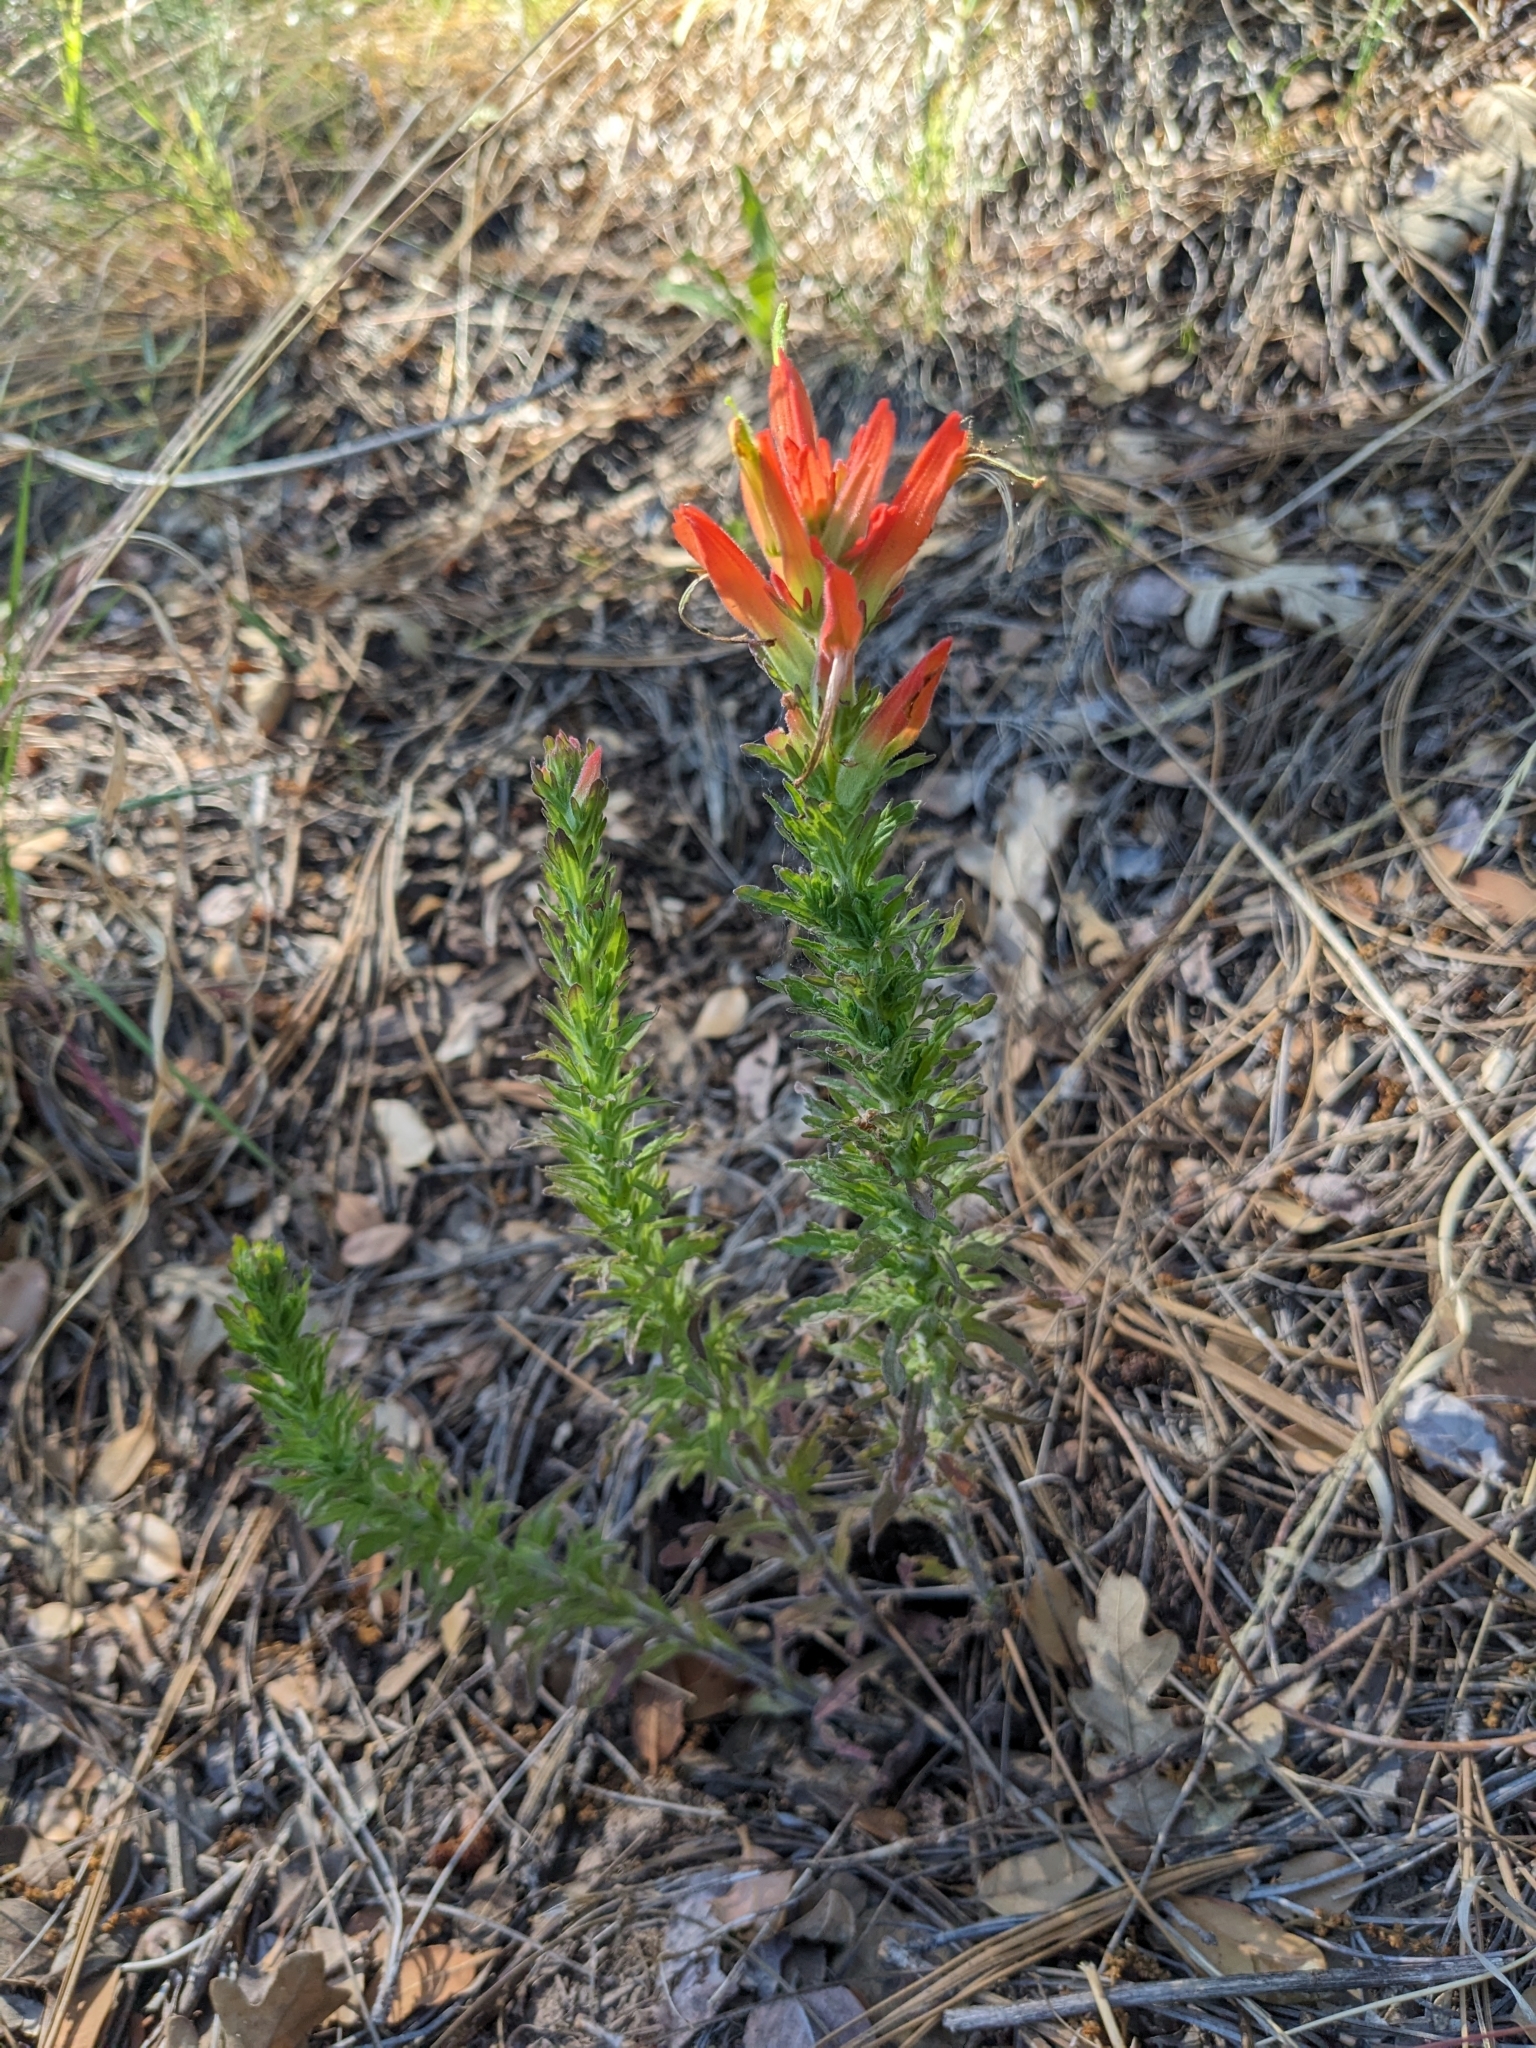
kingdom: Plantae
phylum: Tracheophyta
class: Magnoliopsida
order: Lamiales
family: Orobanchaceae
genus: Castilleja
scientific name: Castilleja patriotica
